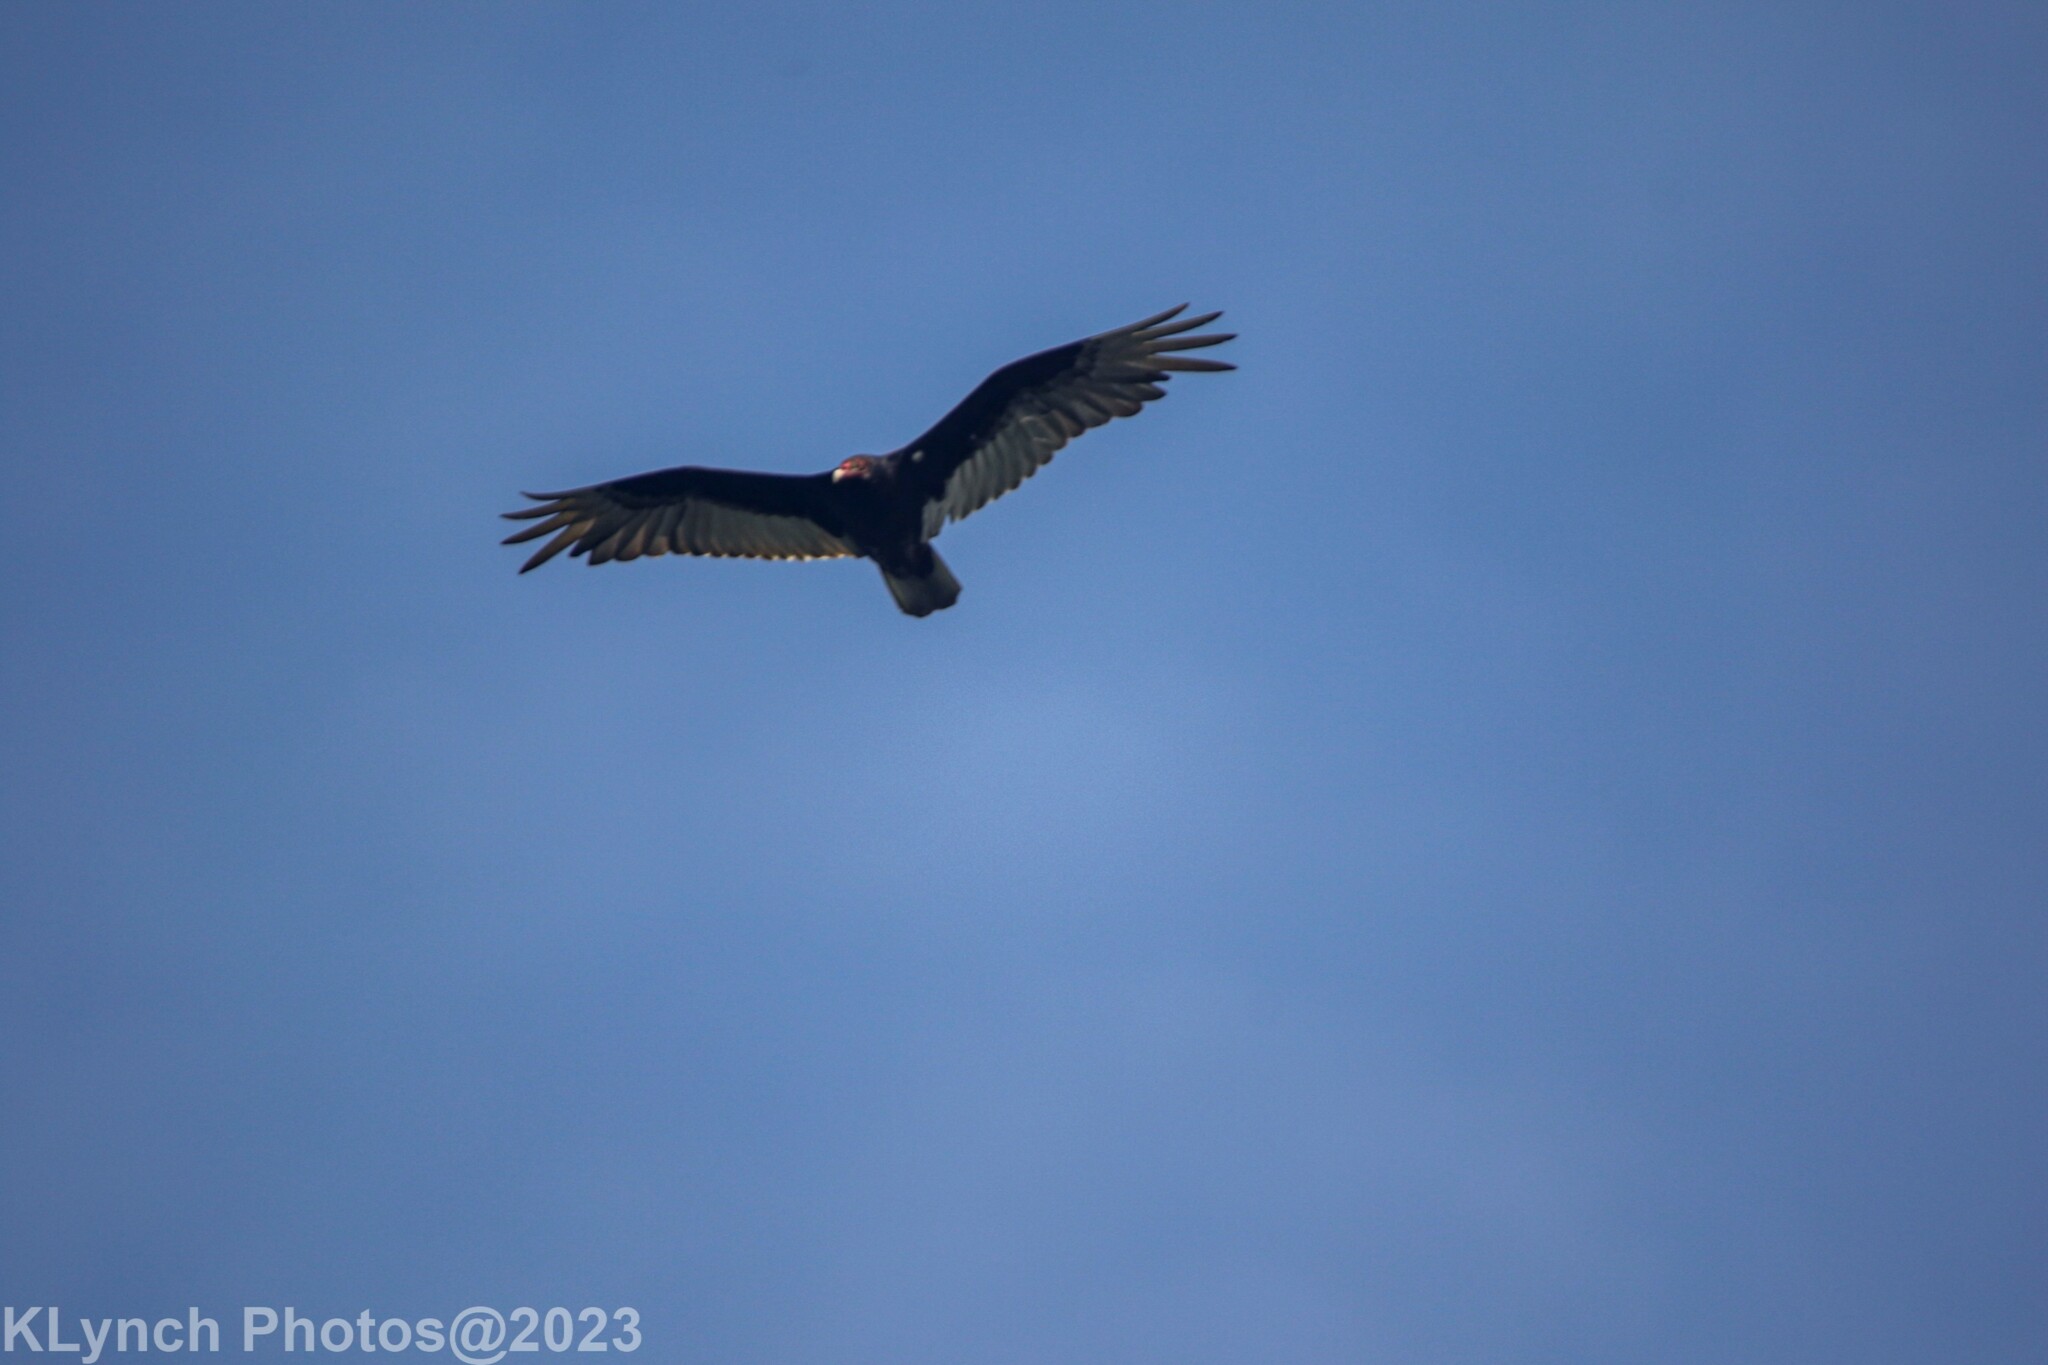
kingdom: Animalia
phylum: Chordata
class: Aves
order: Accipitriformes
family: Cathartidae
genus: Cathartes
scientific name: Cathartes aura
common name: Turkey vulture
